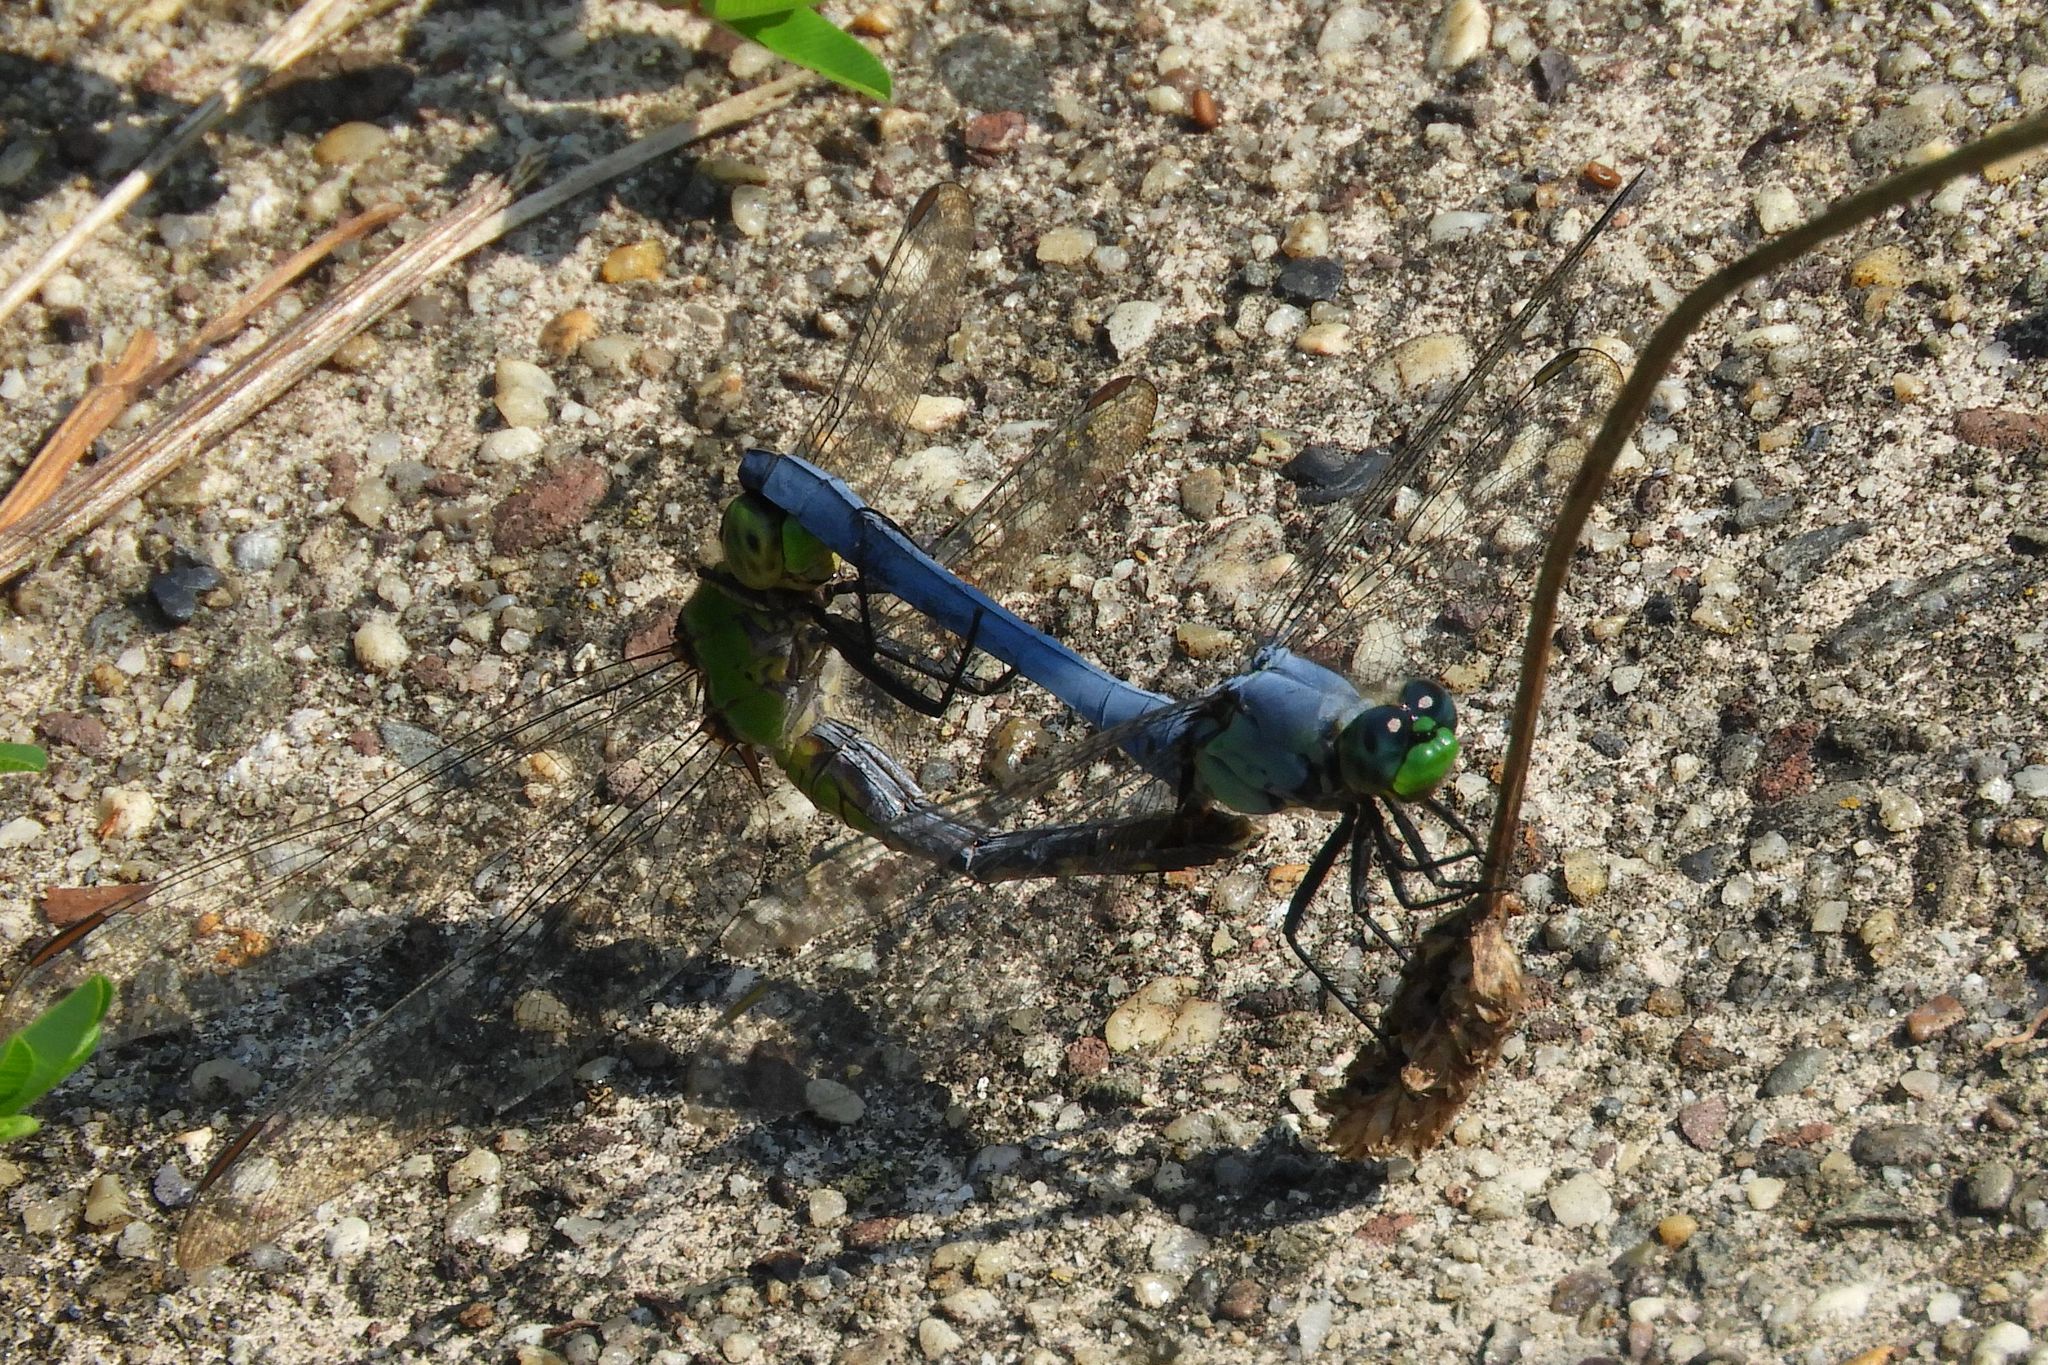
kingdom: Animalia
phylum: Arthropoda
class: Insecta
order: Odonata
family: Libellulidae
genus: Erythemis
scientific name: Erythemis simplicicollis
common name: Eastern pondhawk
